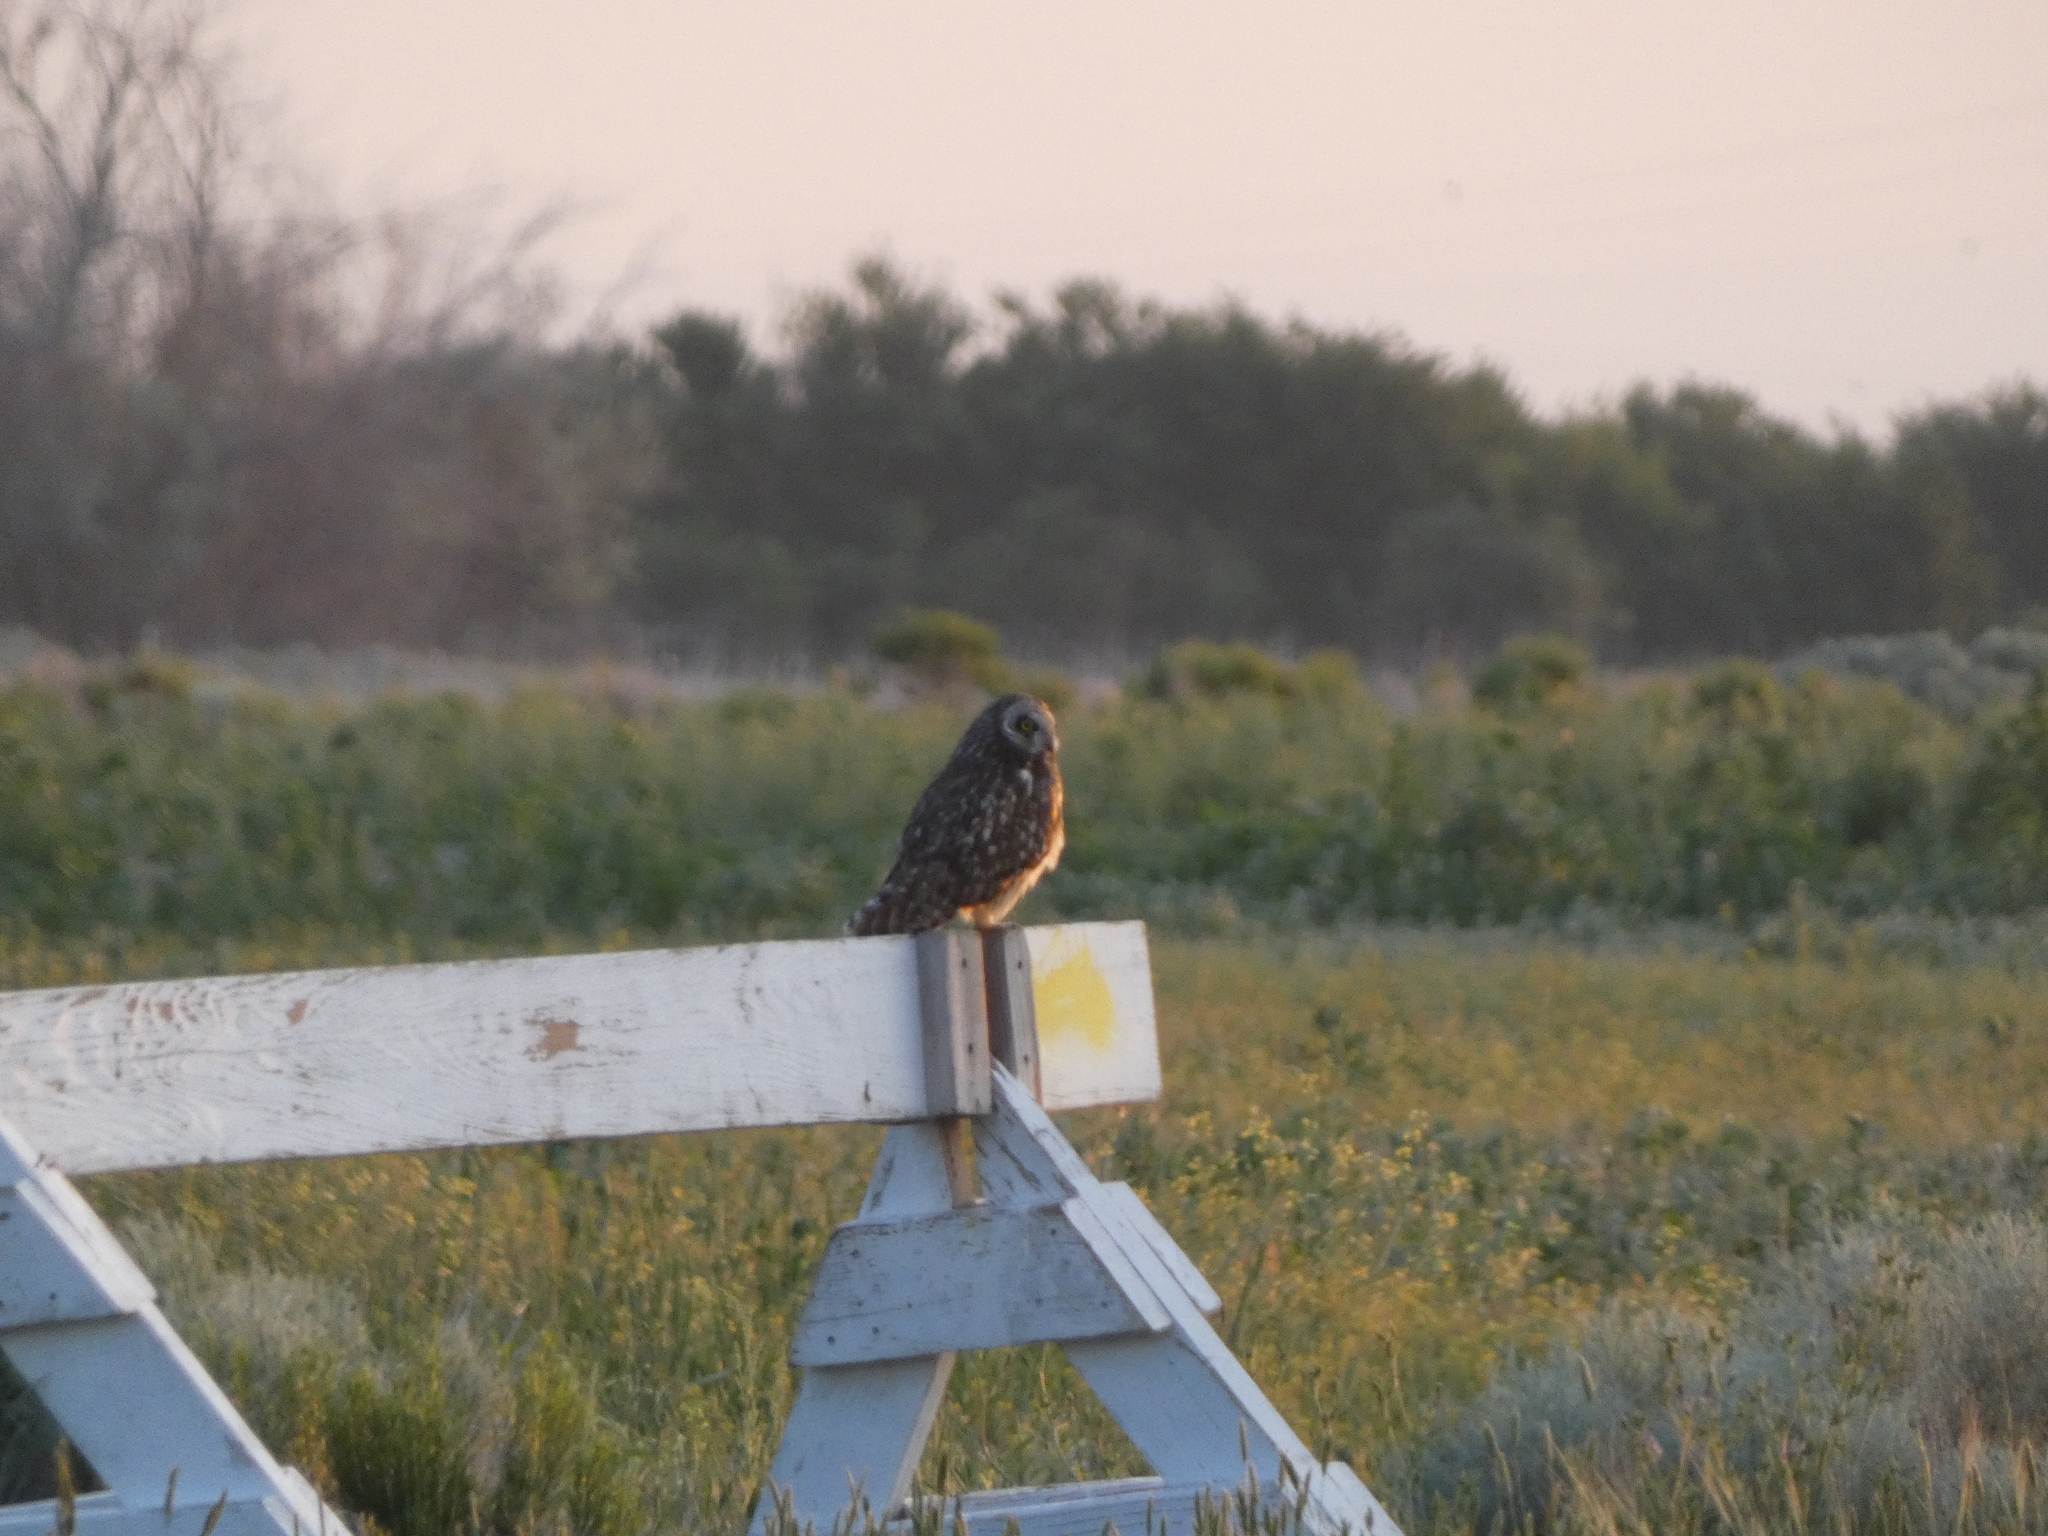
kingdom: Animalia
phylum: Chordata
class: Aves
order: Strigiformes
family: Strigidae
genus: Asio
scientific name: Asio flammeus
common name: Short-eared owl
